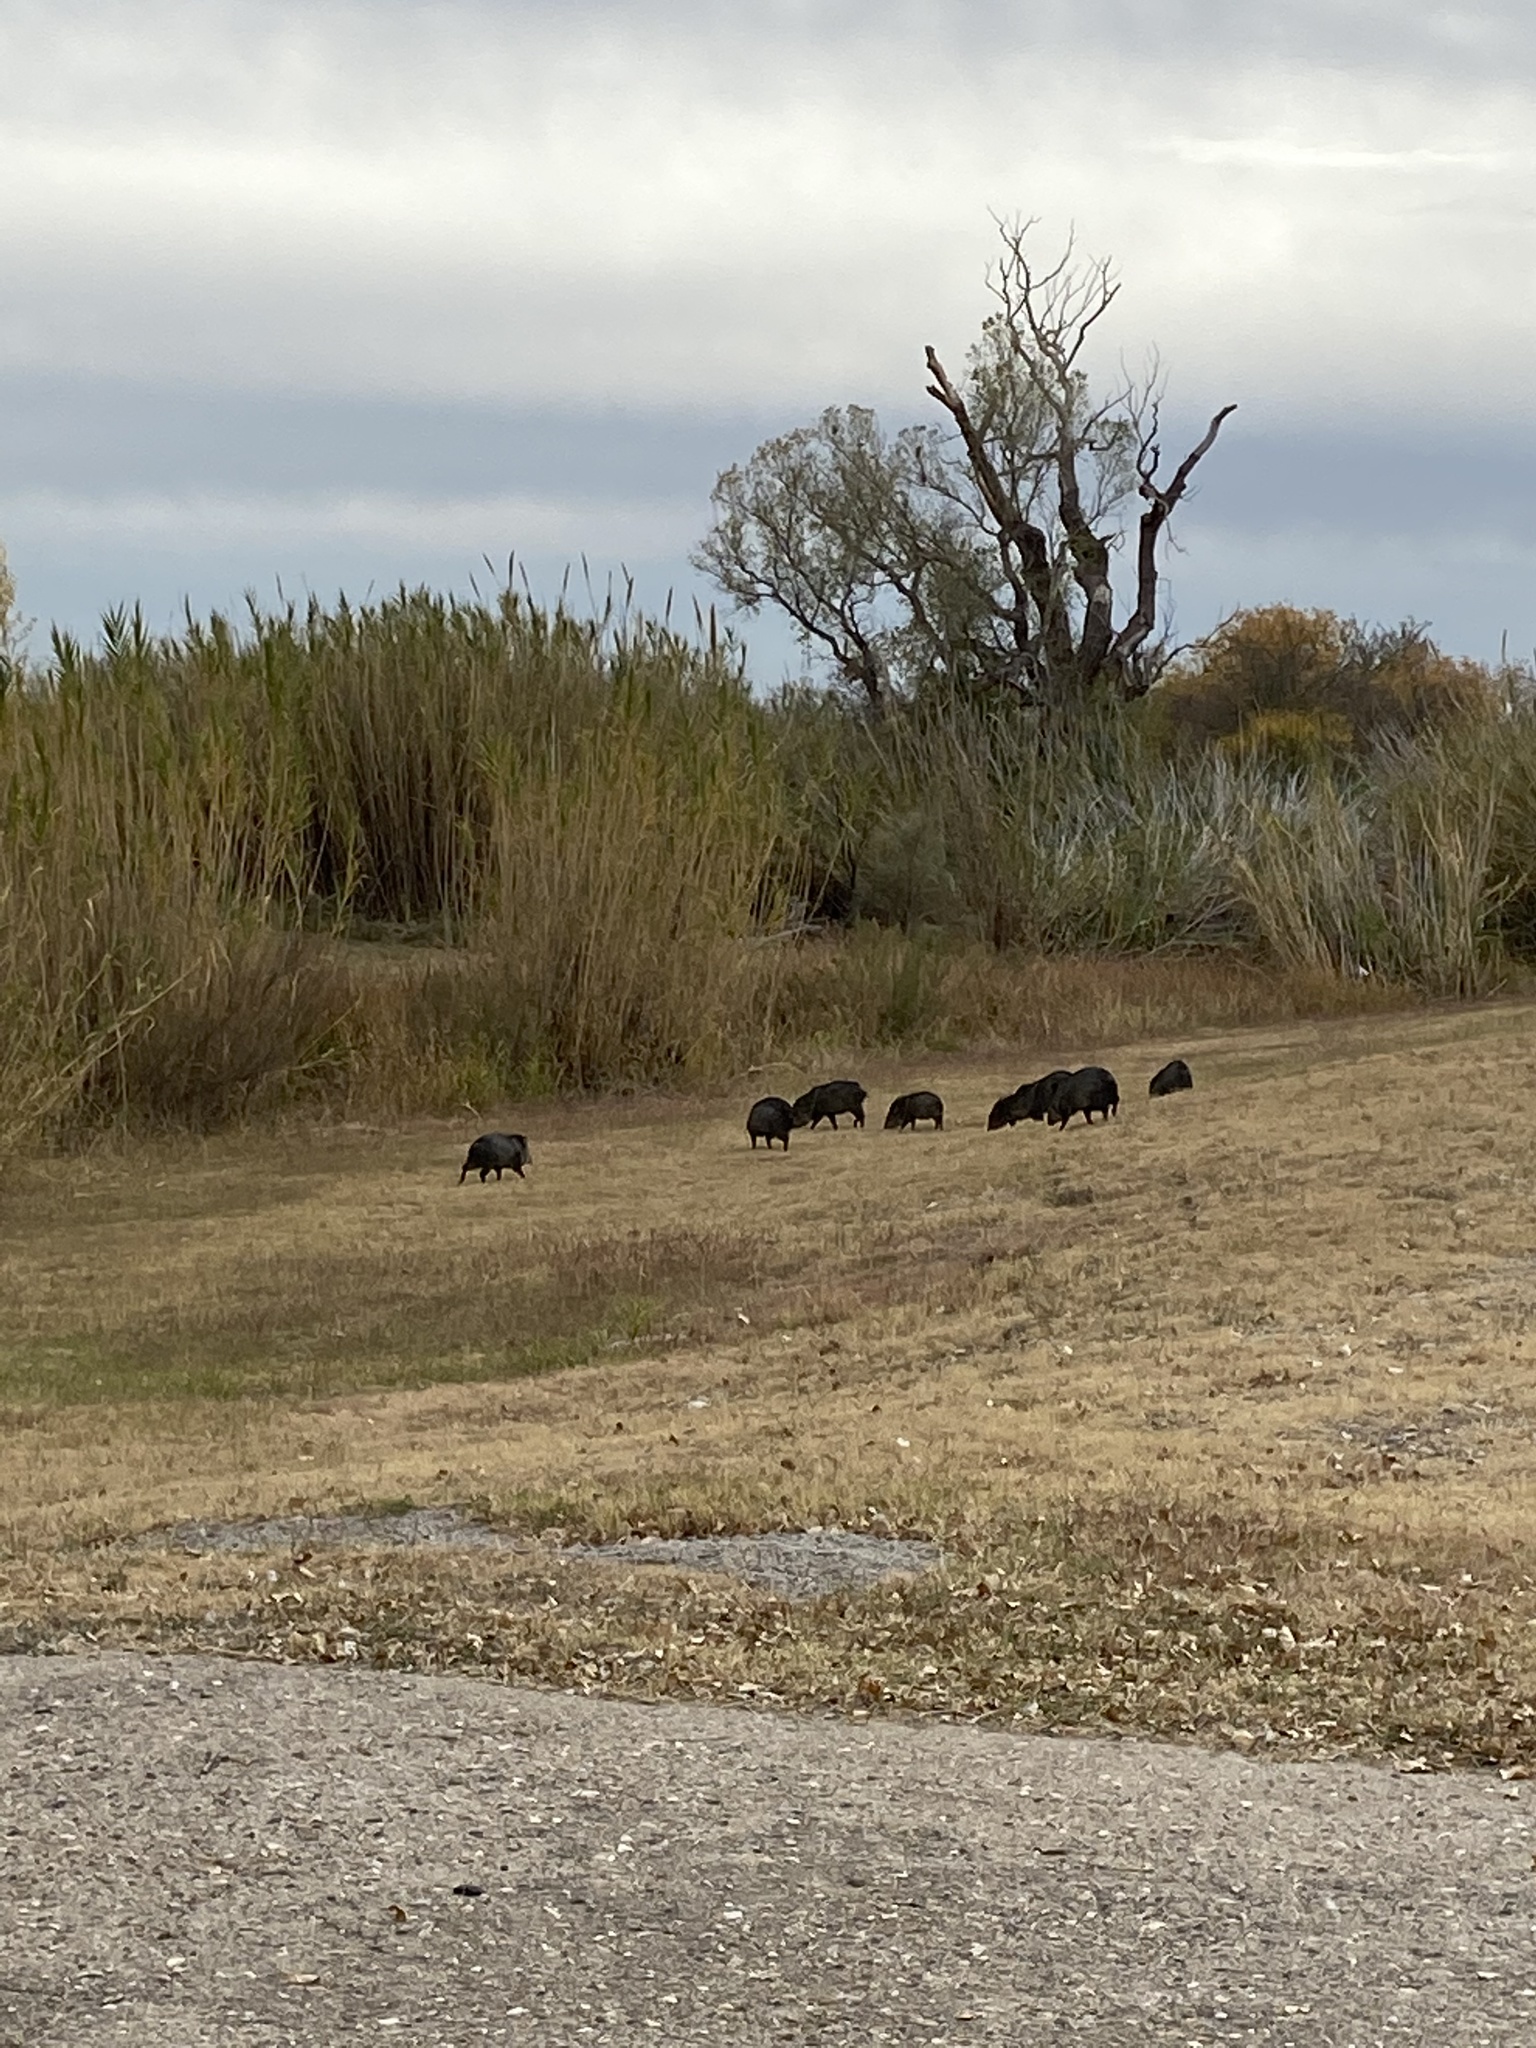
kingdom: Animalia
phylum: Chordata
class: Mammalia
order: Artiodactyla
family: Tayassuidae
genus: Pecari
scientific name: Pecari tajacu
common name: Collared peccary
